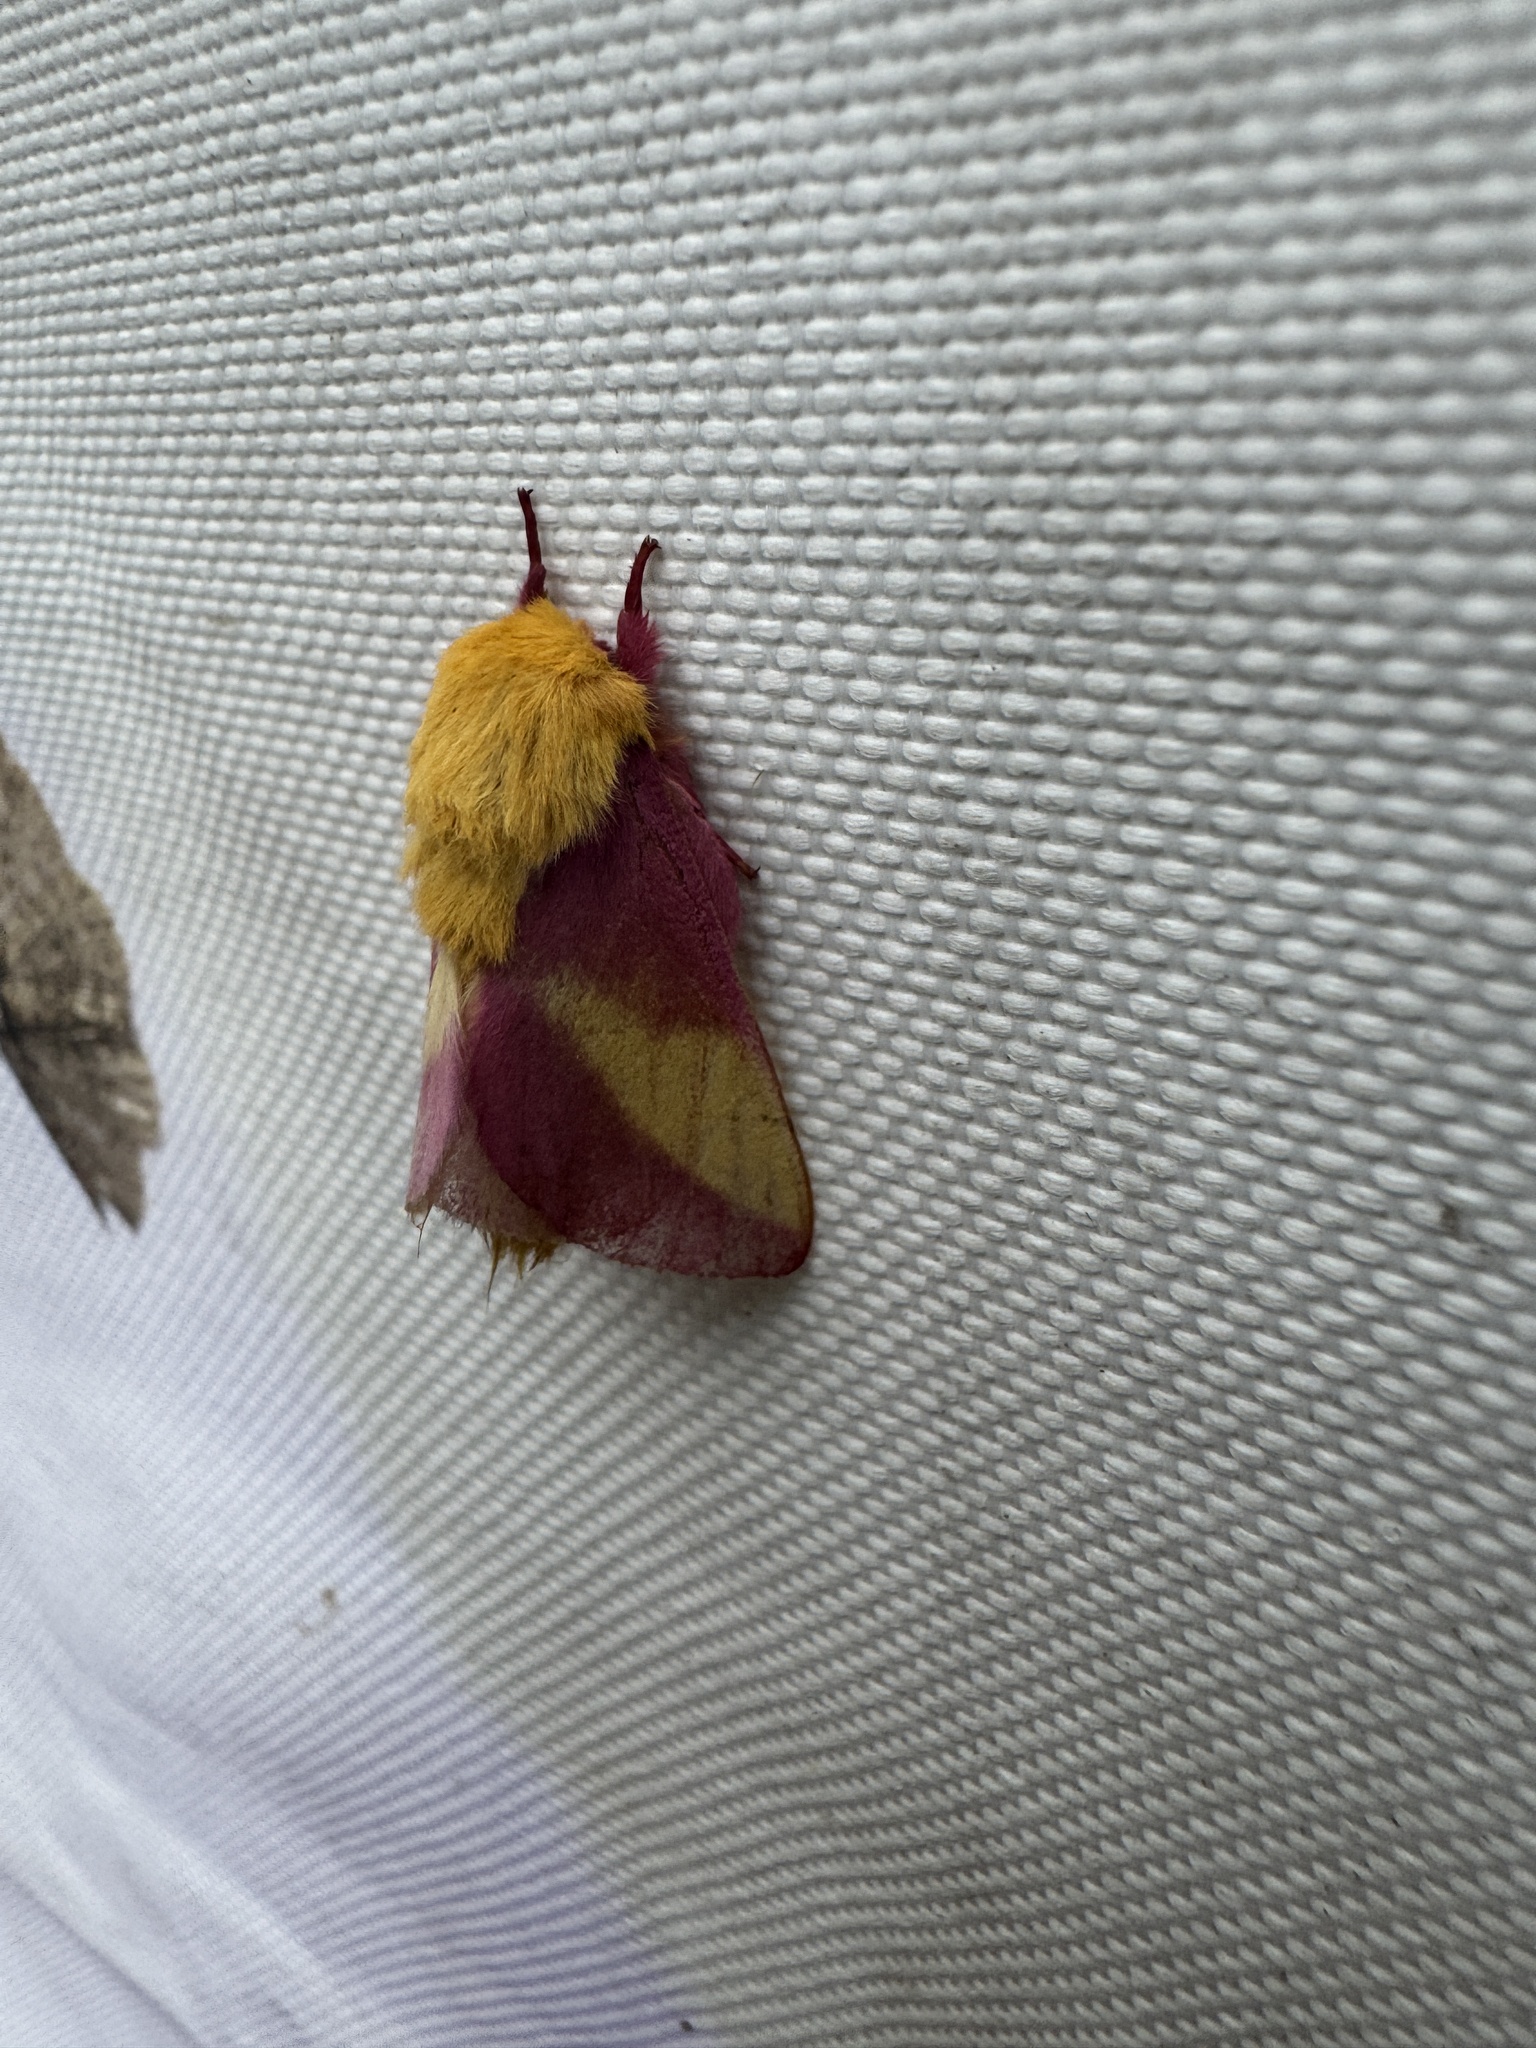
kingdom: Animalia
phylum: Arthropoda
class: Insecta
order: Lepidoptera
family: Saturniidae
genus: Dryocampa
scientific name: Dryocampa rubicunda
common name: Rosy maple moth
